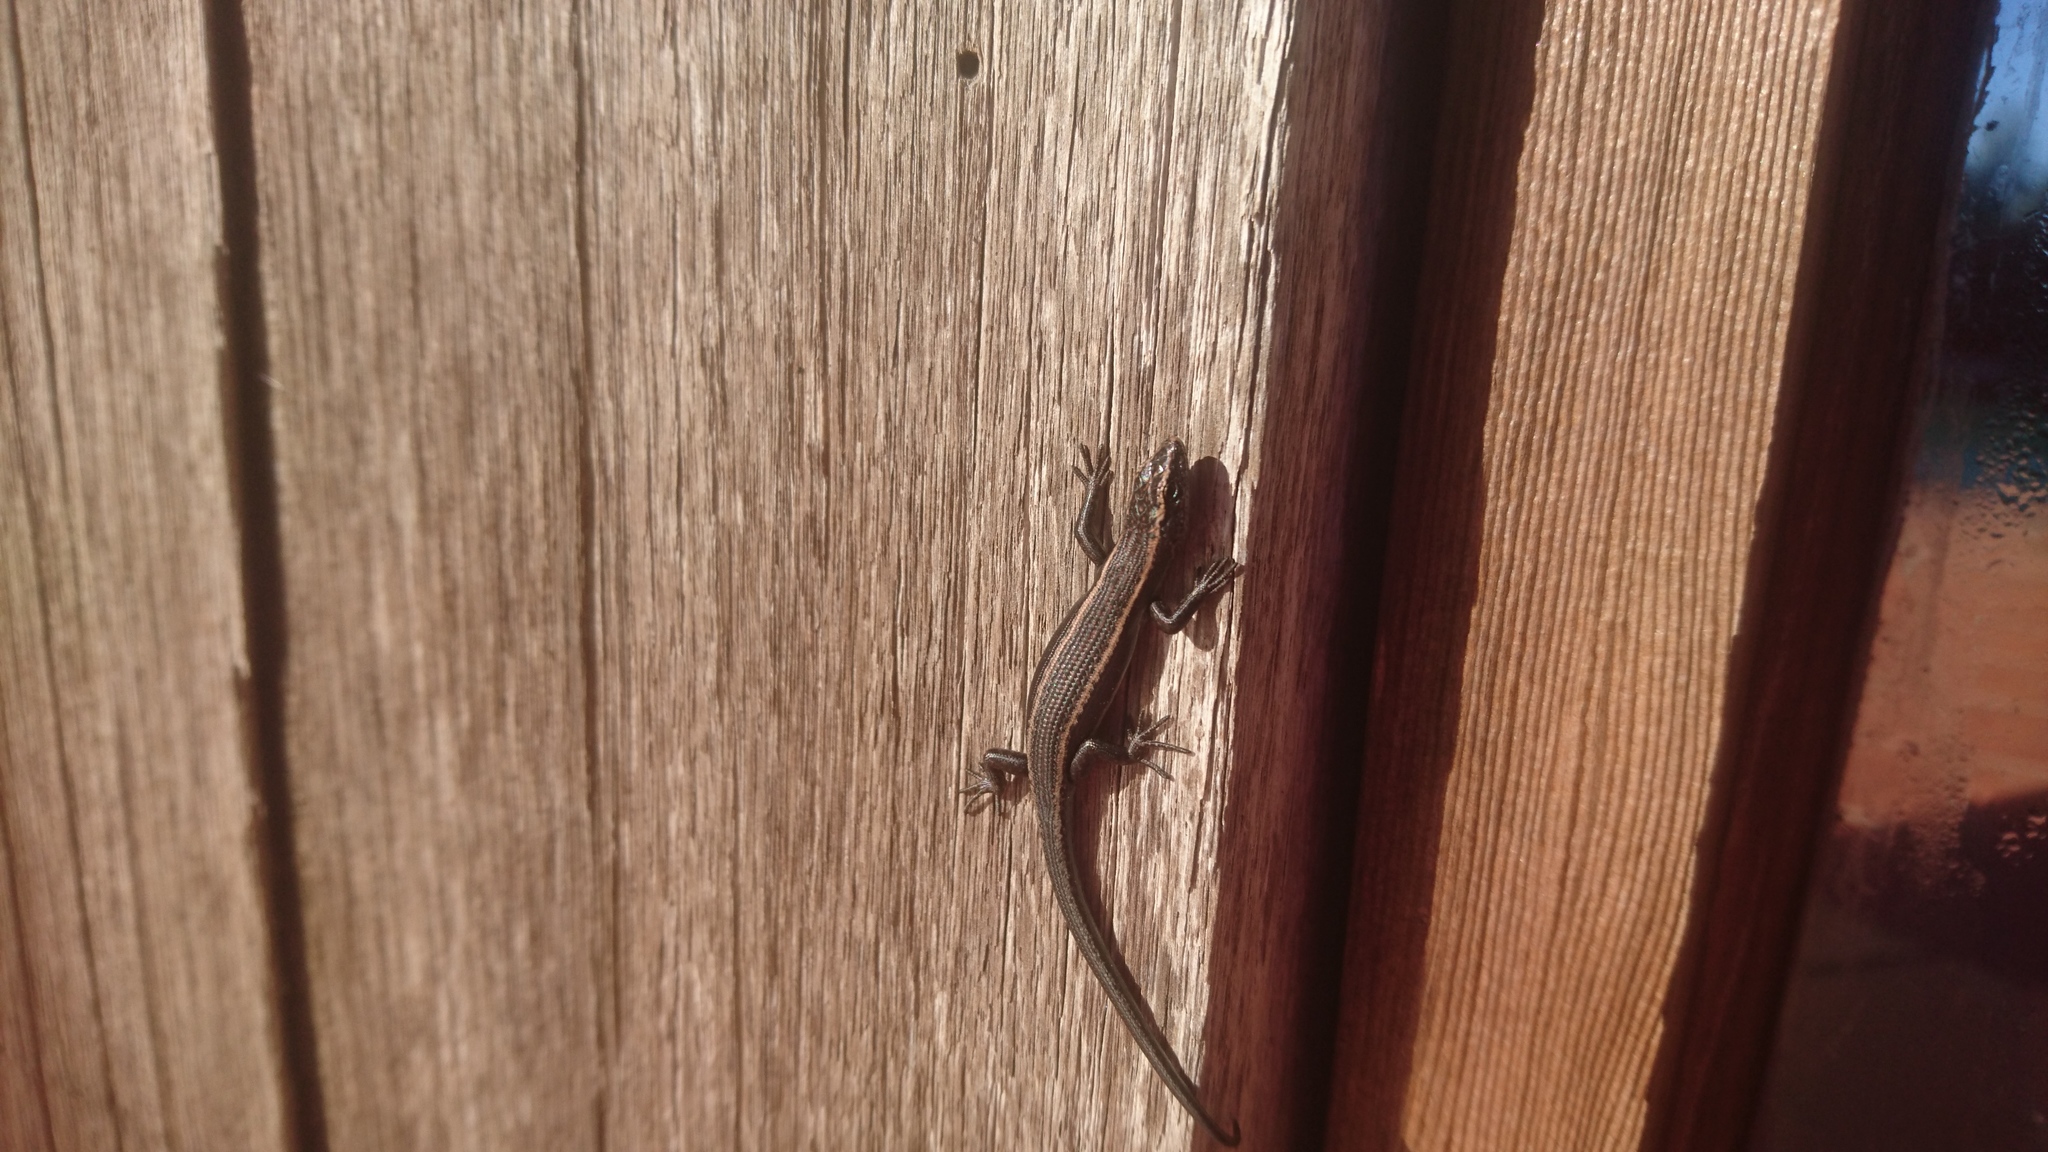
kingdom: Animalia
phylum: Chordata
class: Squamata
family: Scincidae
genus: Pseudemoia
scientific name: Pseudemoia spenceri
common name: Trunk-climbing cool-skink
